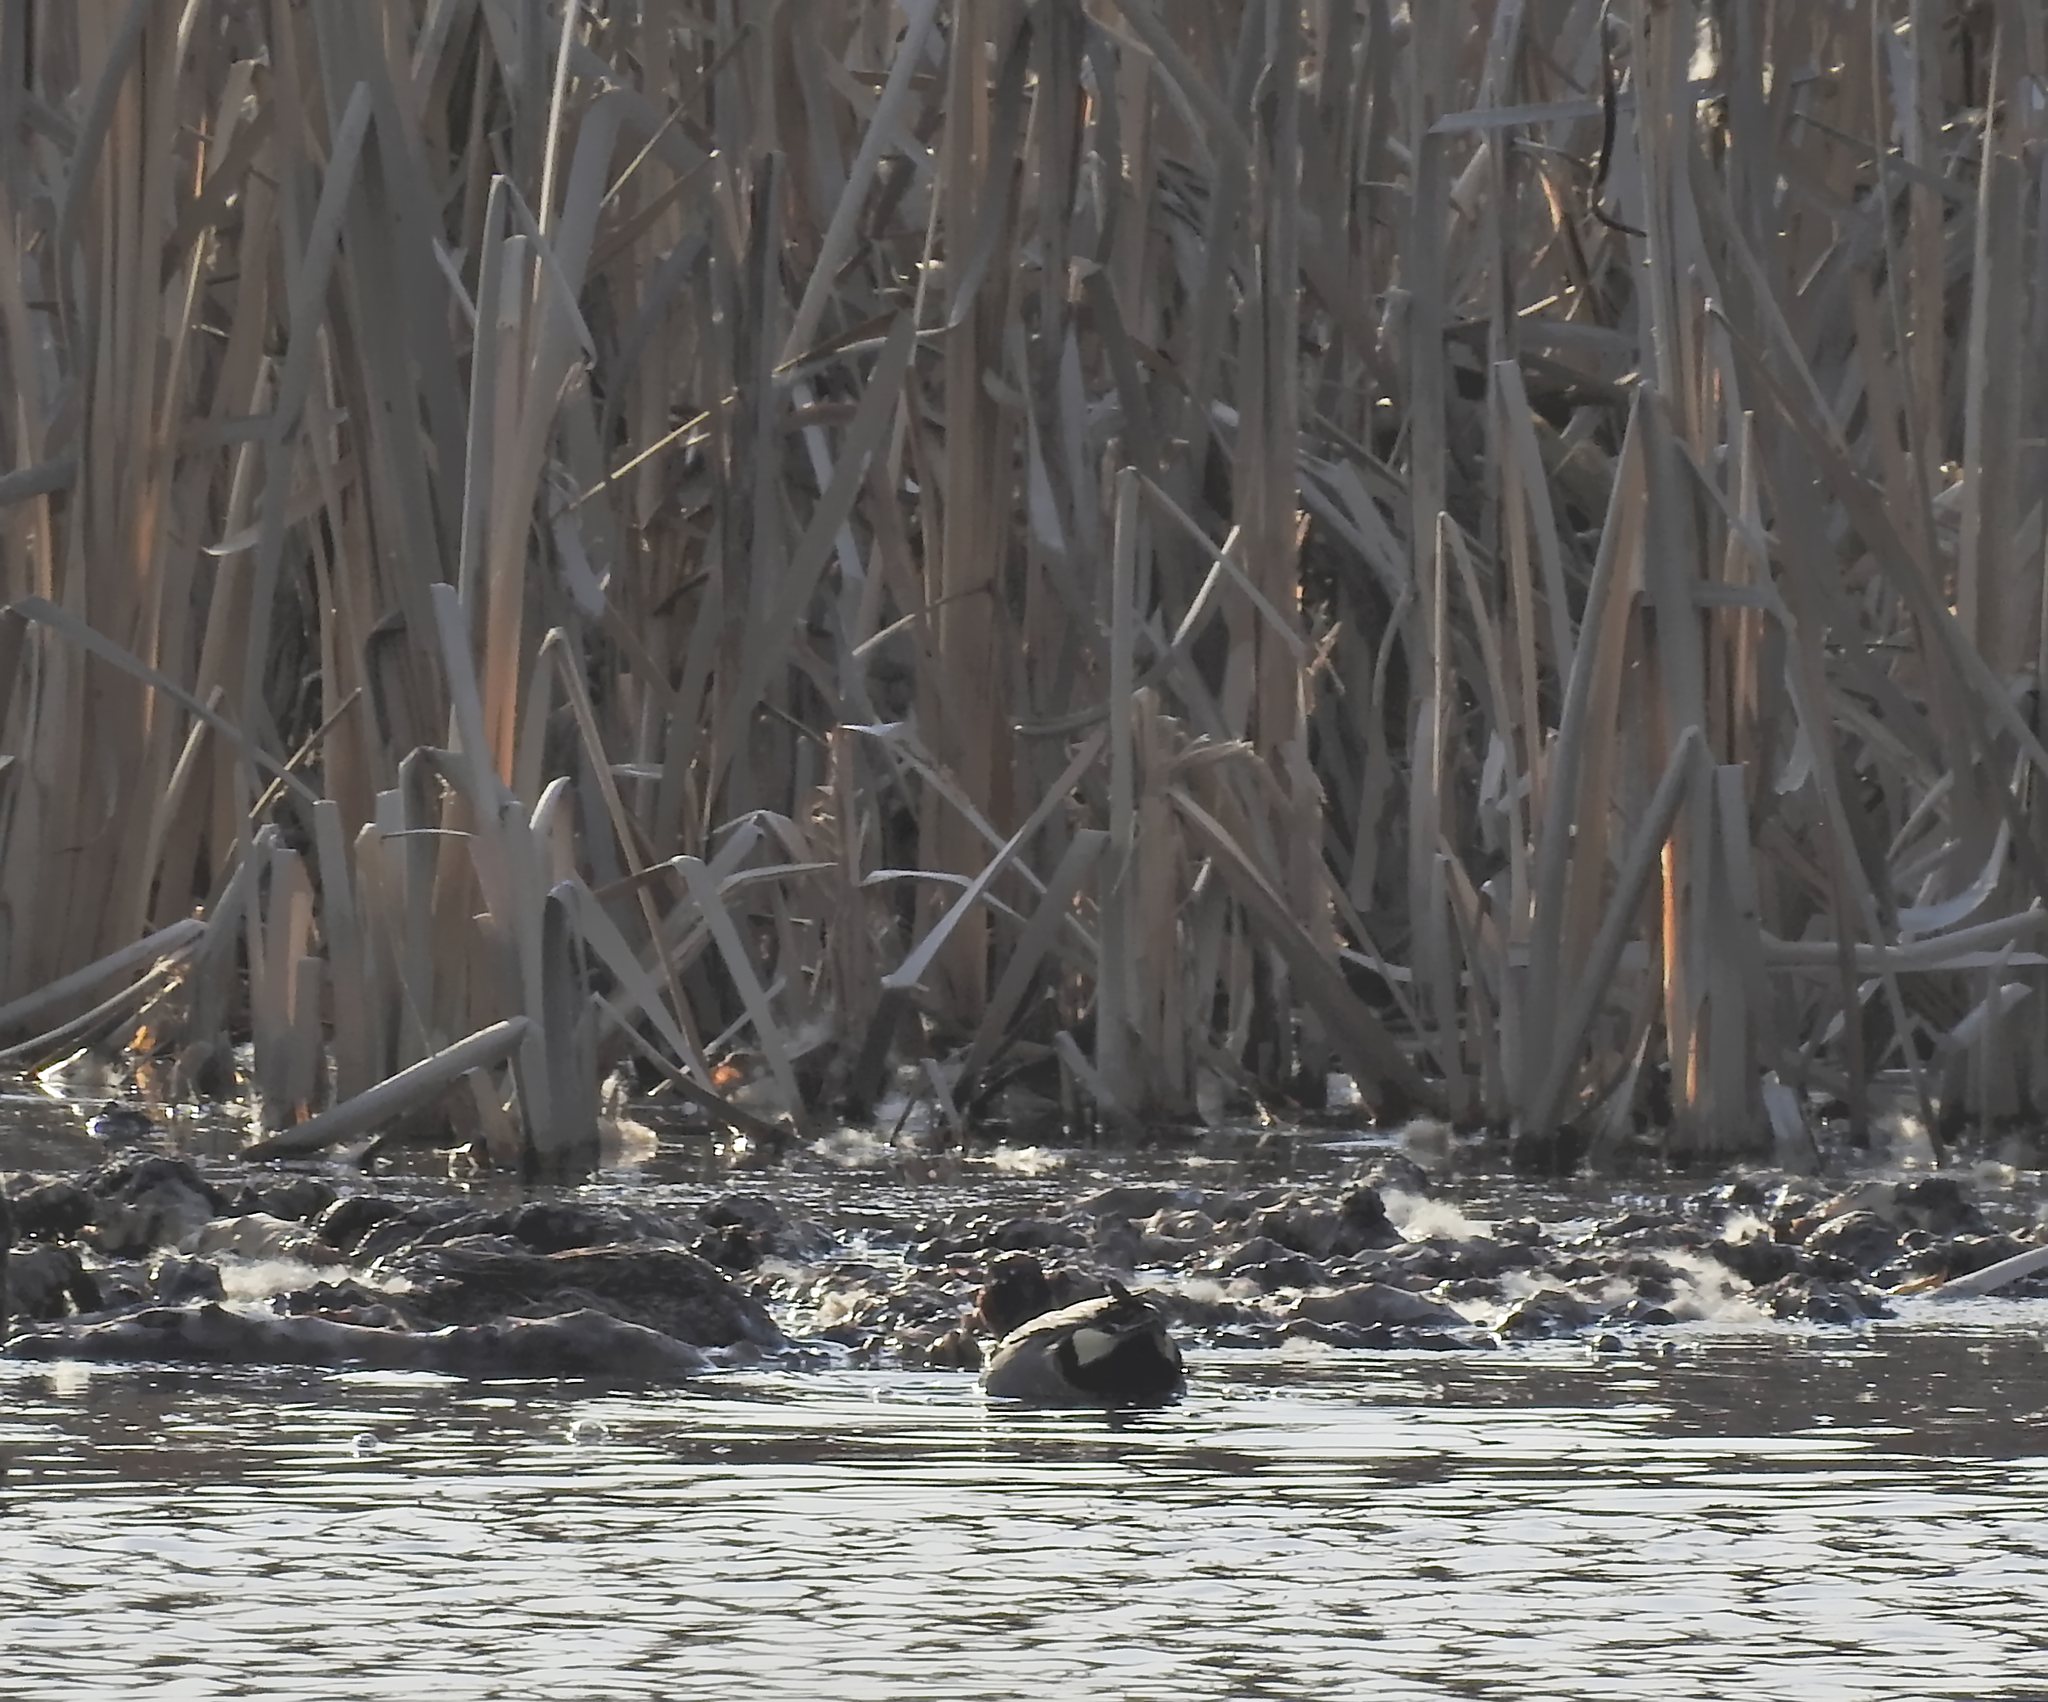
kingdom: Animalia
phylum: Chordata
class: Aves
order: Anseriformes
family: Anatidae
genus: Anas
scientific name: Anas crecca
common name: Eurasian teal
